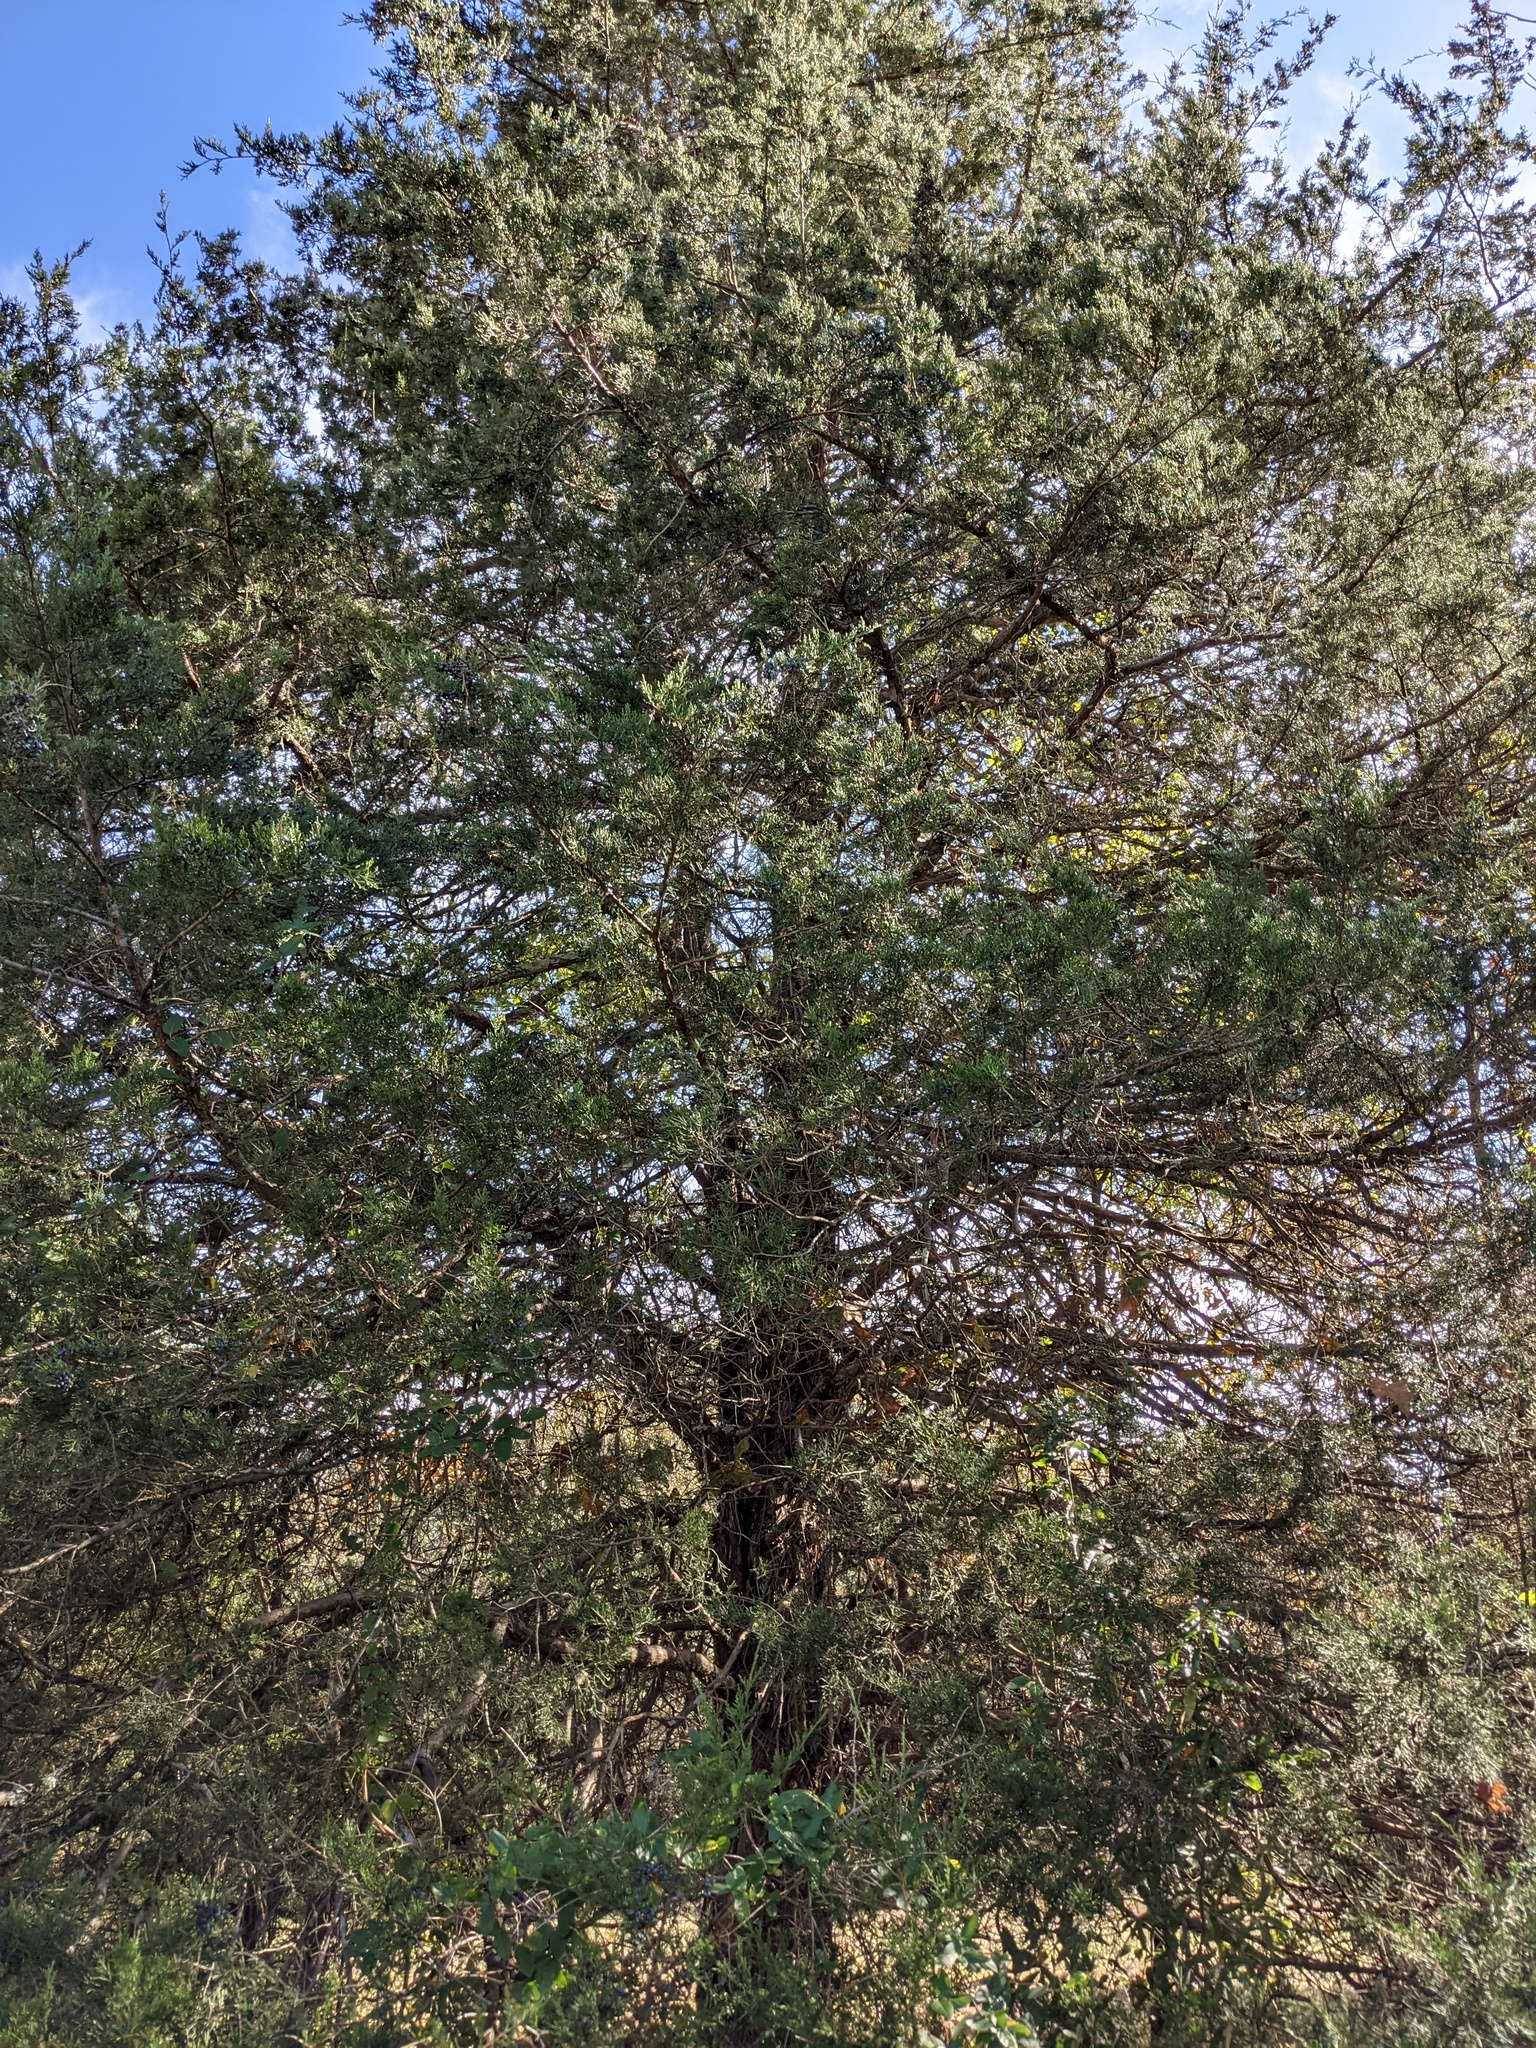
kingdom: Plantae
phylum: Tracheophyta
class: Pinopsida
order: Pinales
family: Cupressaceae
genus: Juniperus
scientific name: Juniperus virginiana
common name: Red juniper
